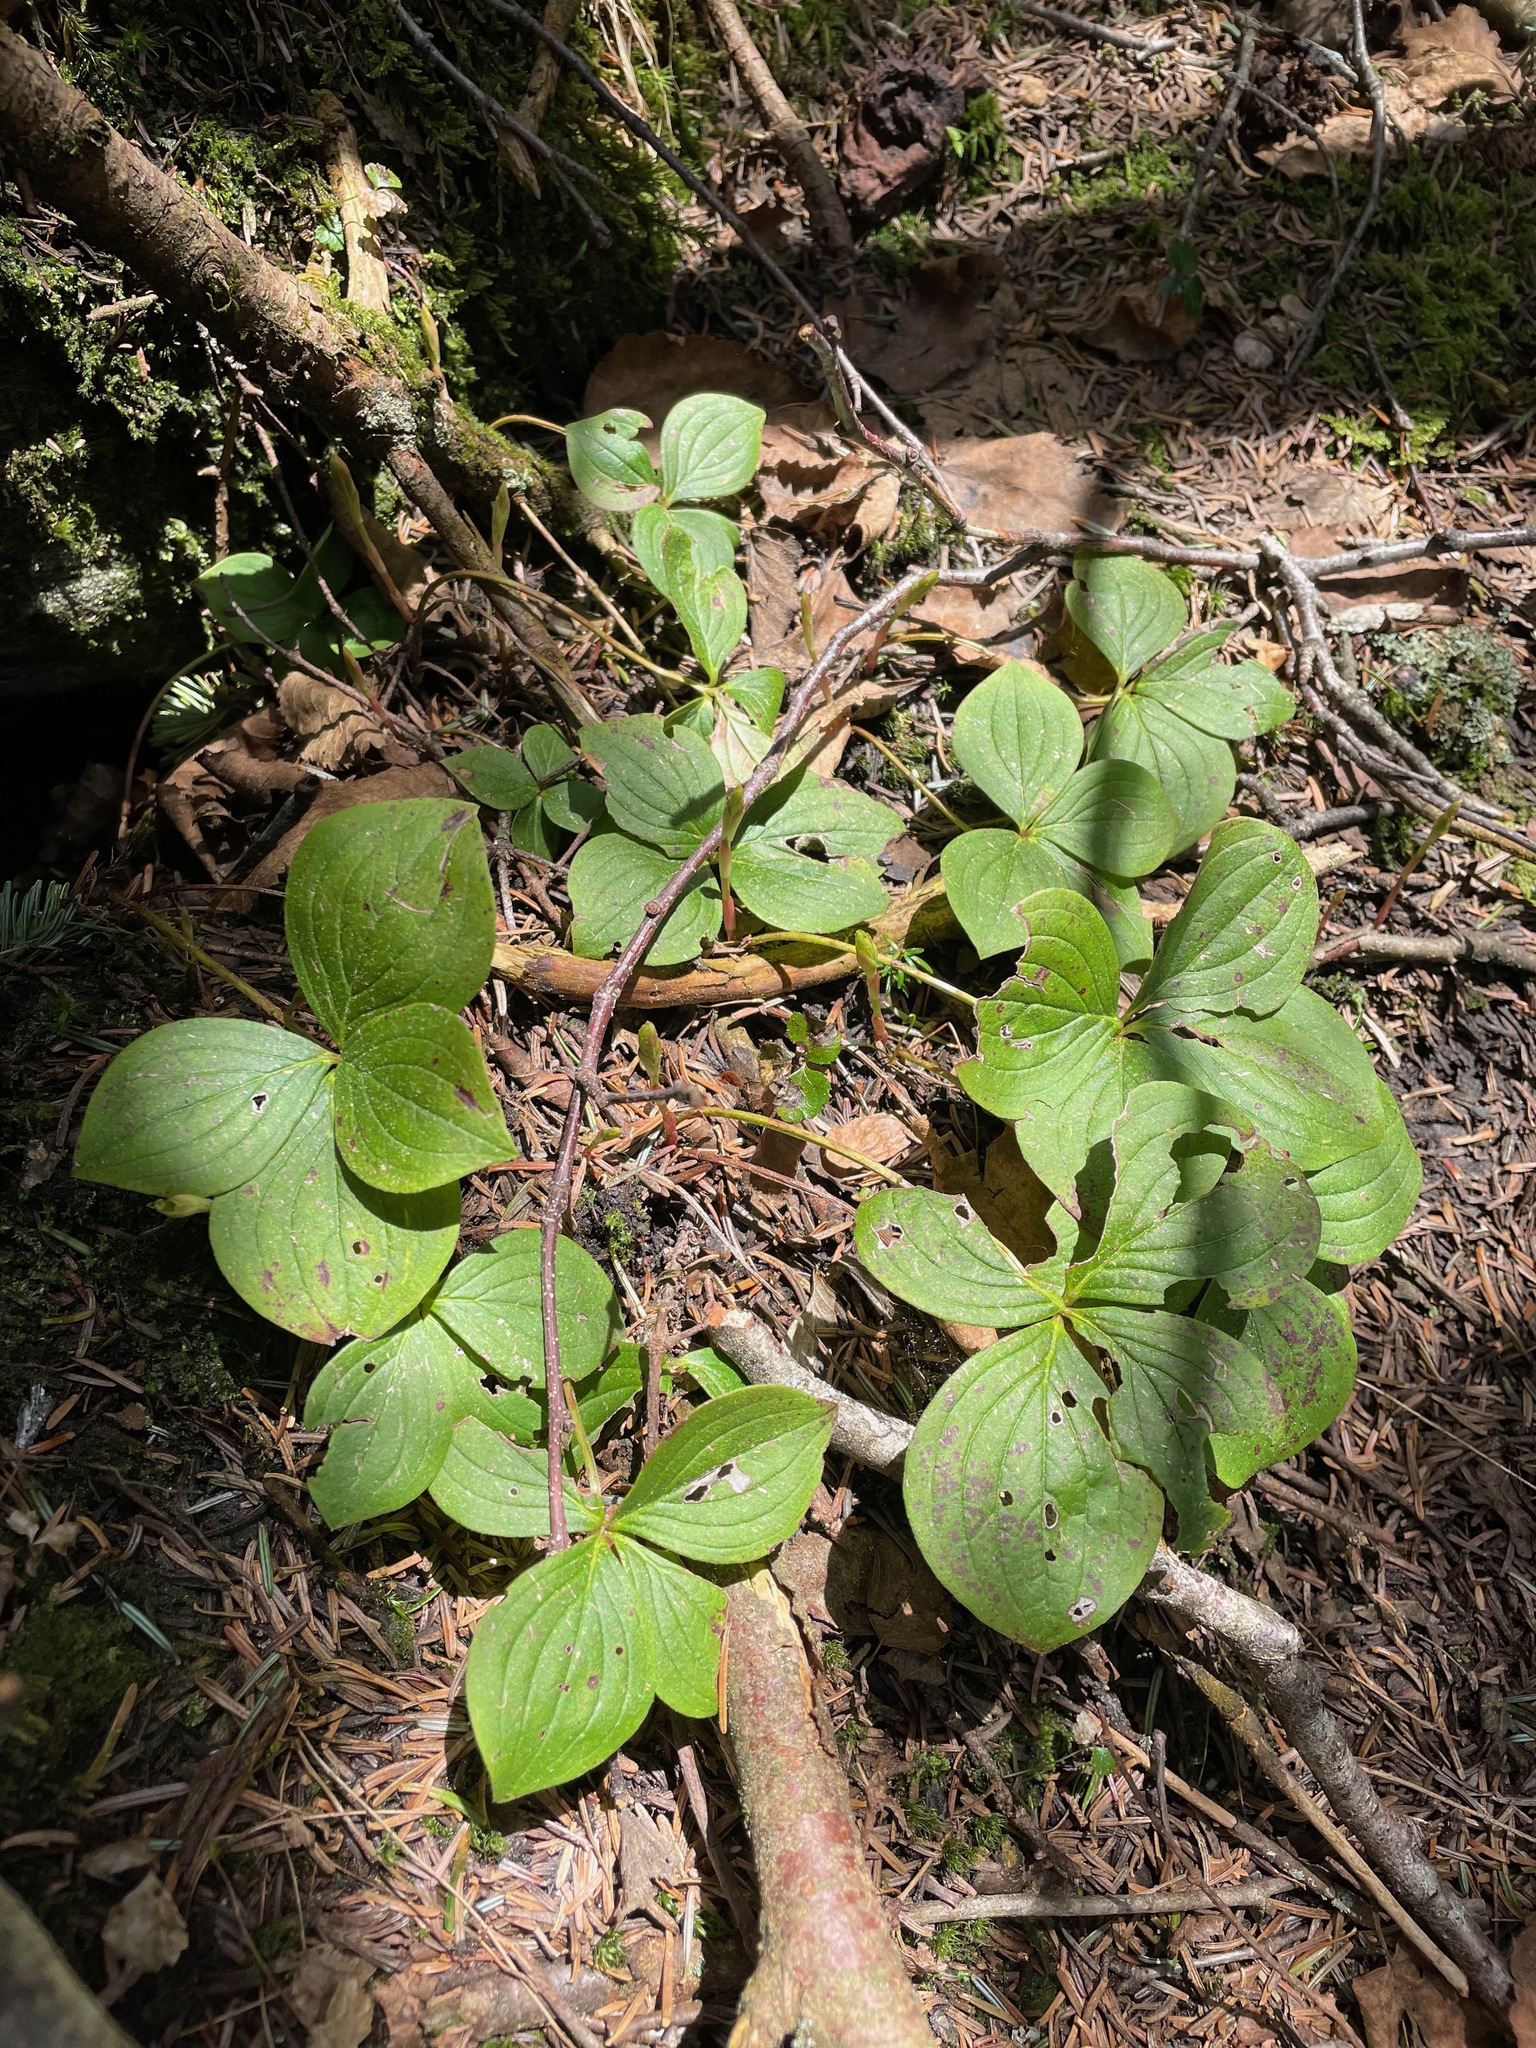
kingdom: Plantae
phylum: Tracheophyta
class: Magnoliopsida
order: Cornales
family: Cornaceae
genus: Cornus
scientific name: Cornus canadensis
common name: Creeping dogwood
